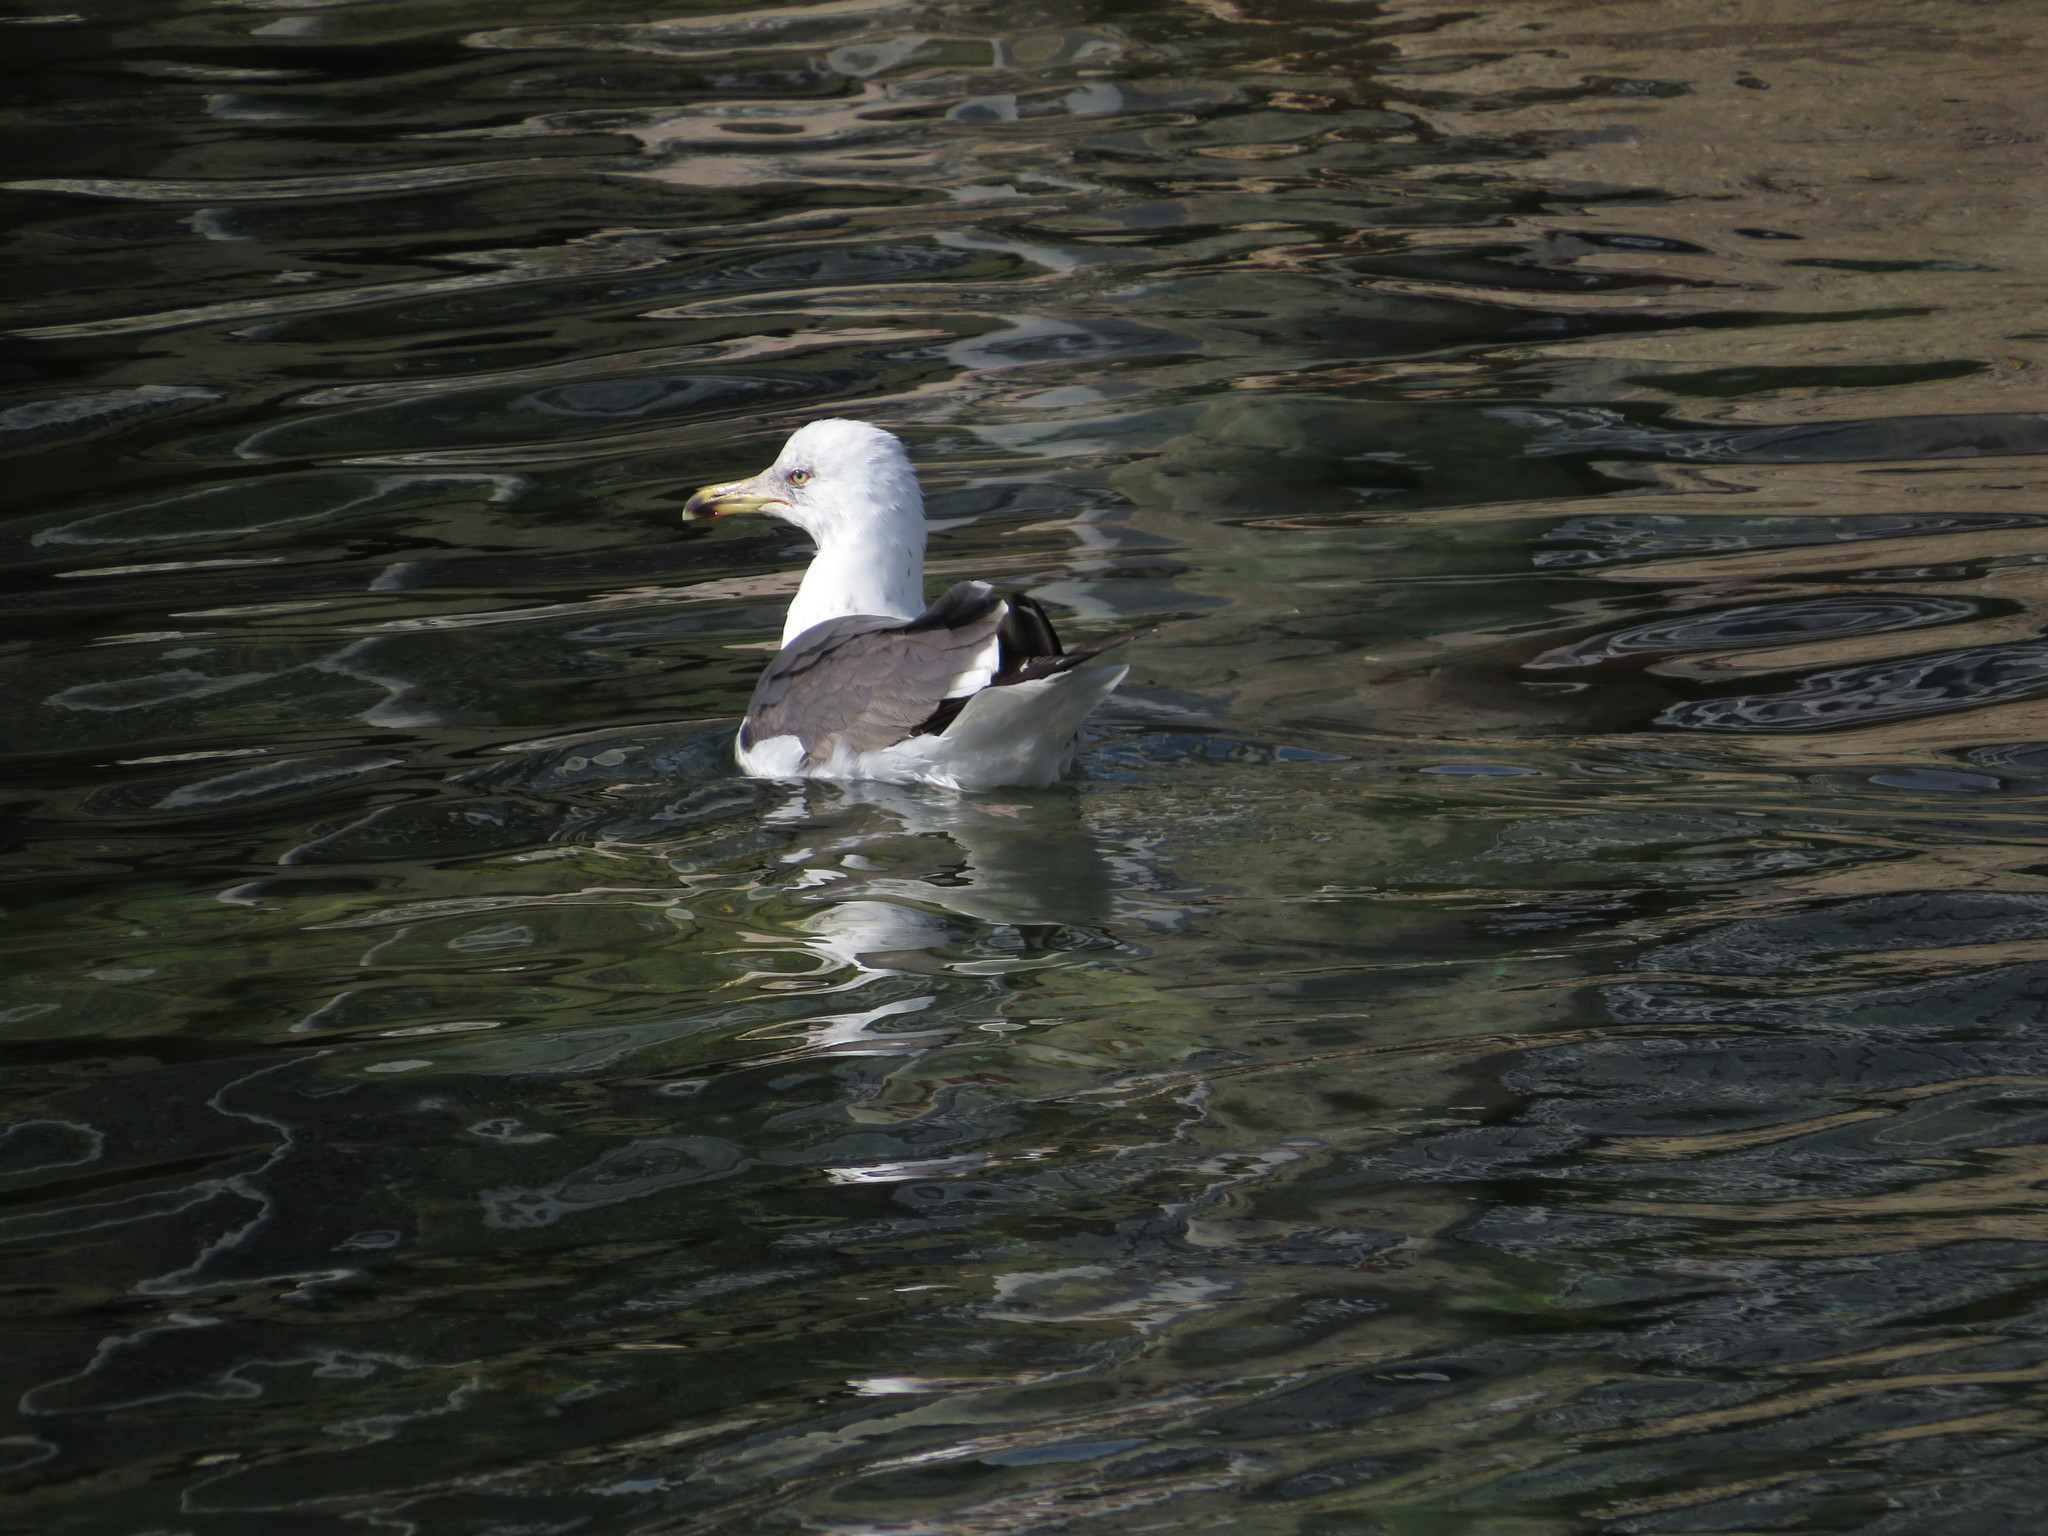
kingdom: Animalia
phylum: Chordata
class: Aves
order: Charadriiformes
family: Laridae
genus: Larus
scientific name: Larus fuscus
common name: Lesser black-backed gull
